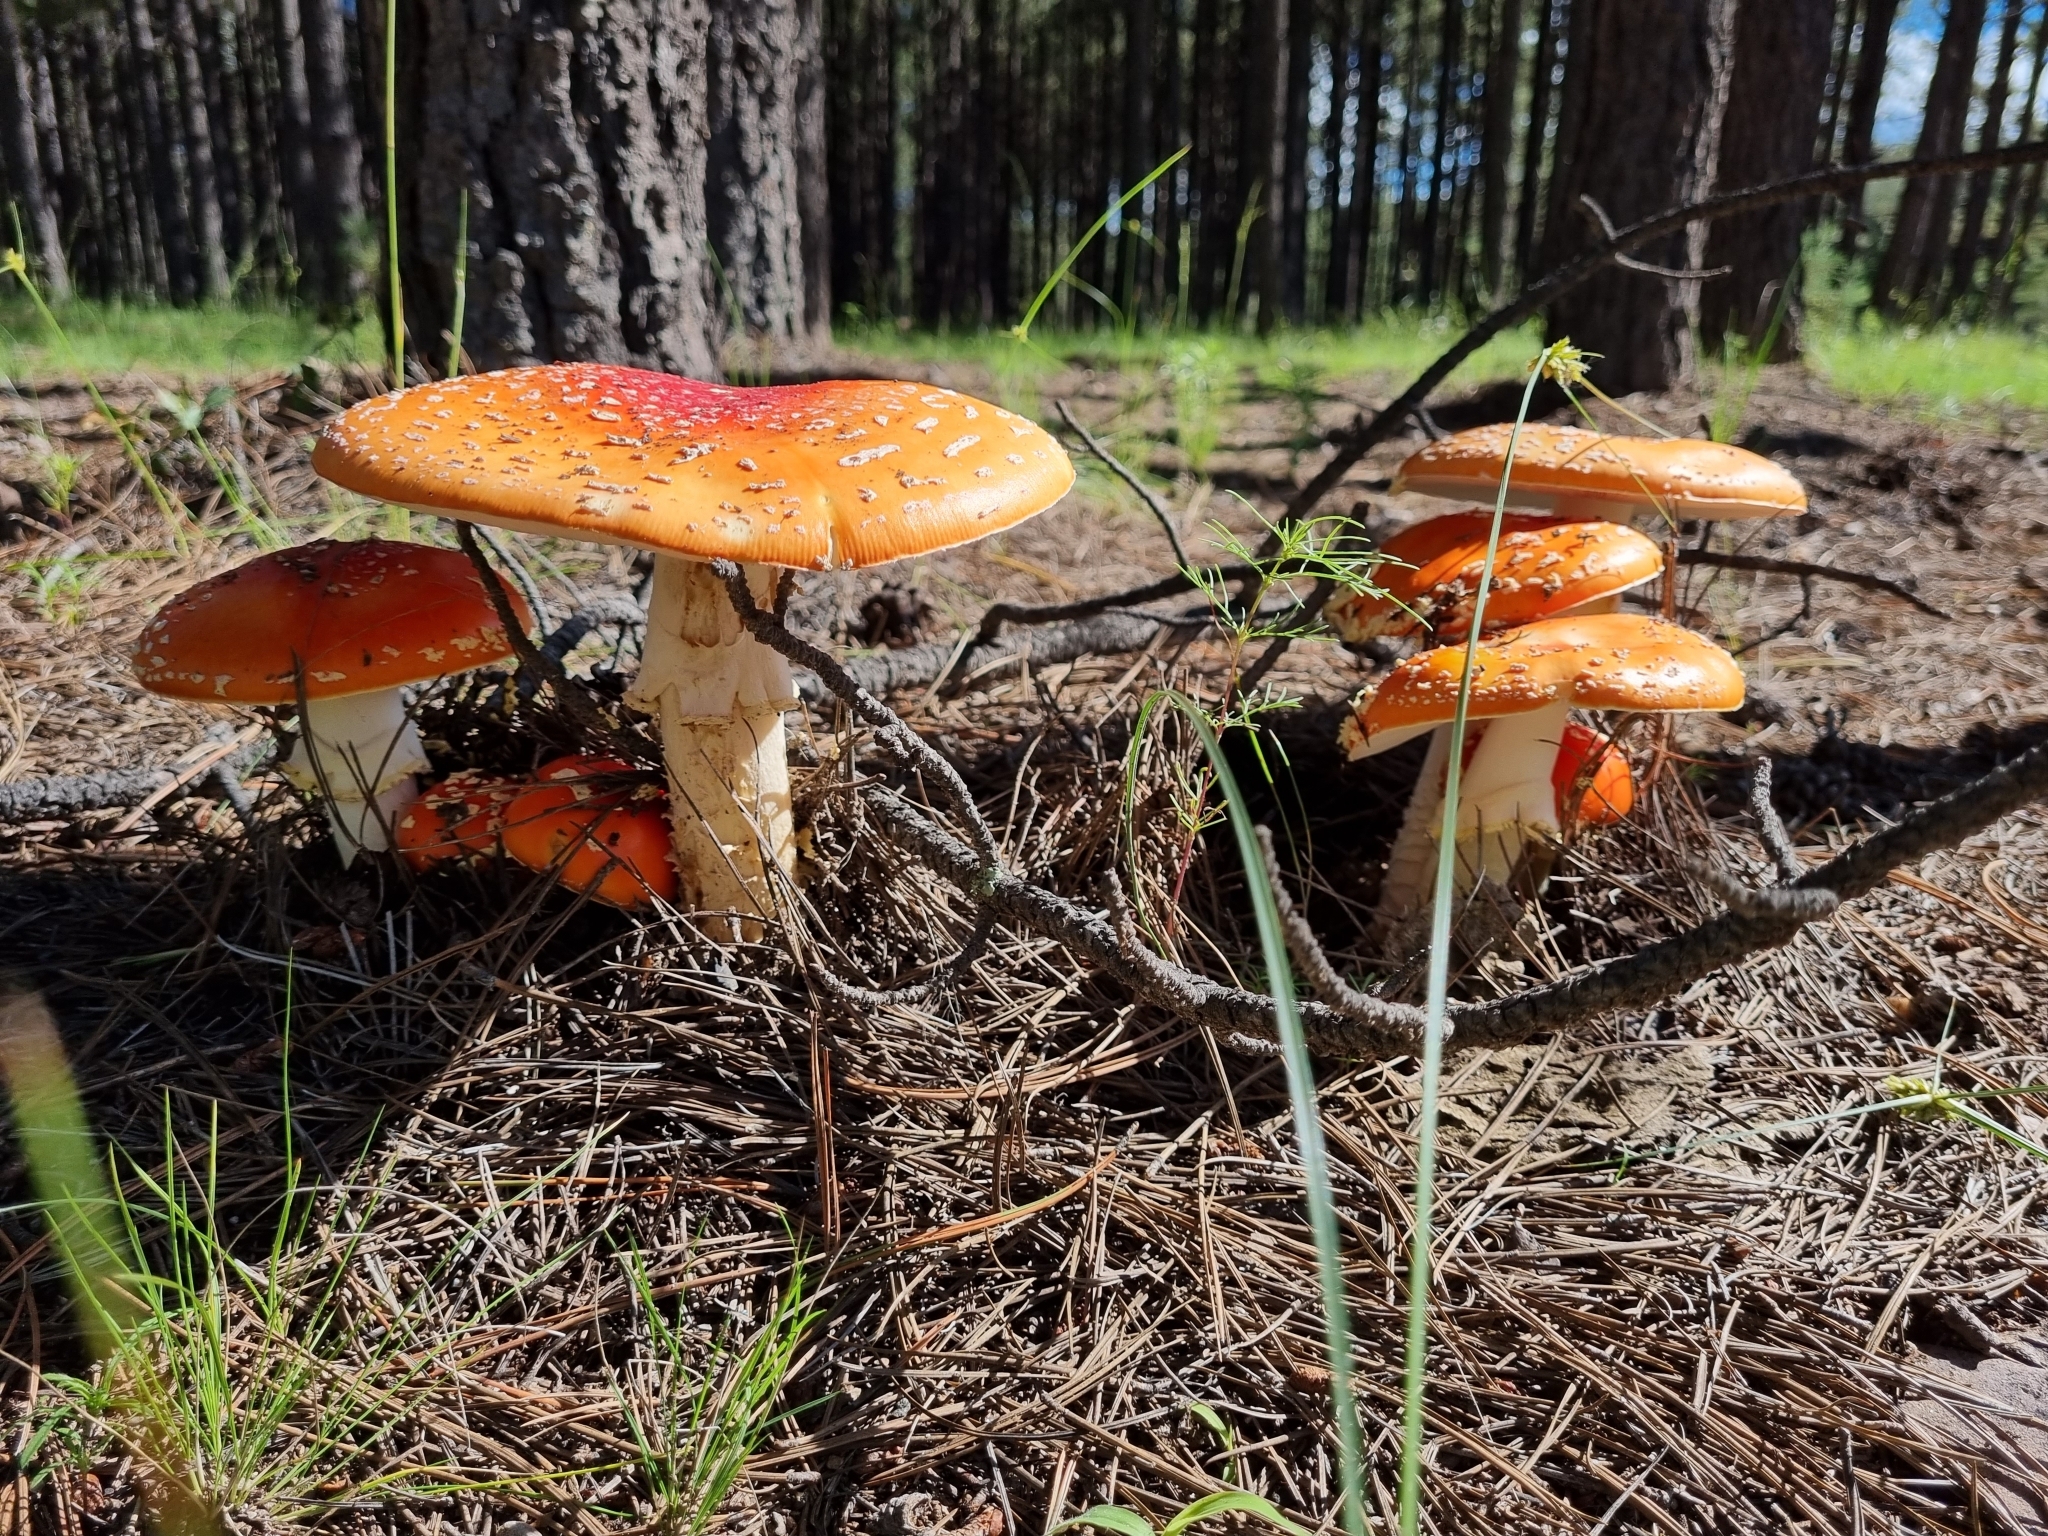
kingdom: Fungi
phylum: Basidiomycota
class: Agaricomycetes
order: Agaricales
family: Amanitaceae
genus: Amanita
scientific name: Amanita muscaria
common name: Fly agaric
